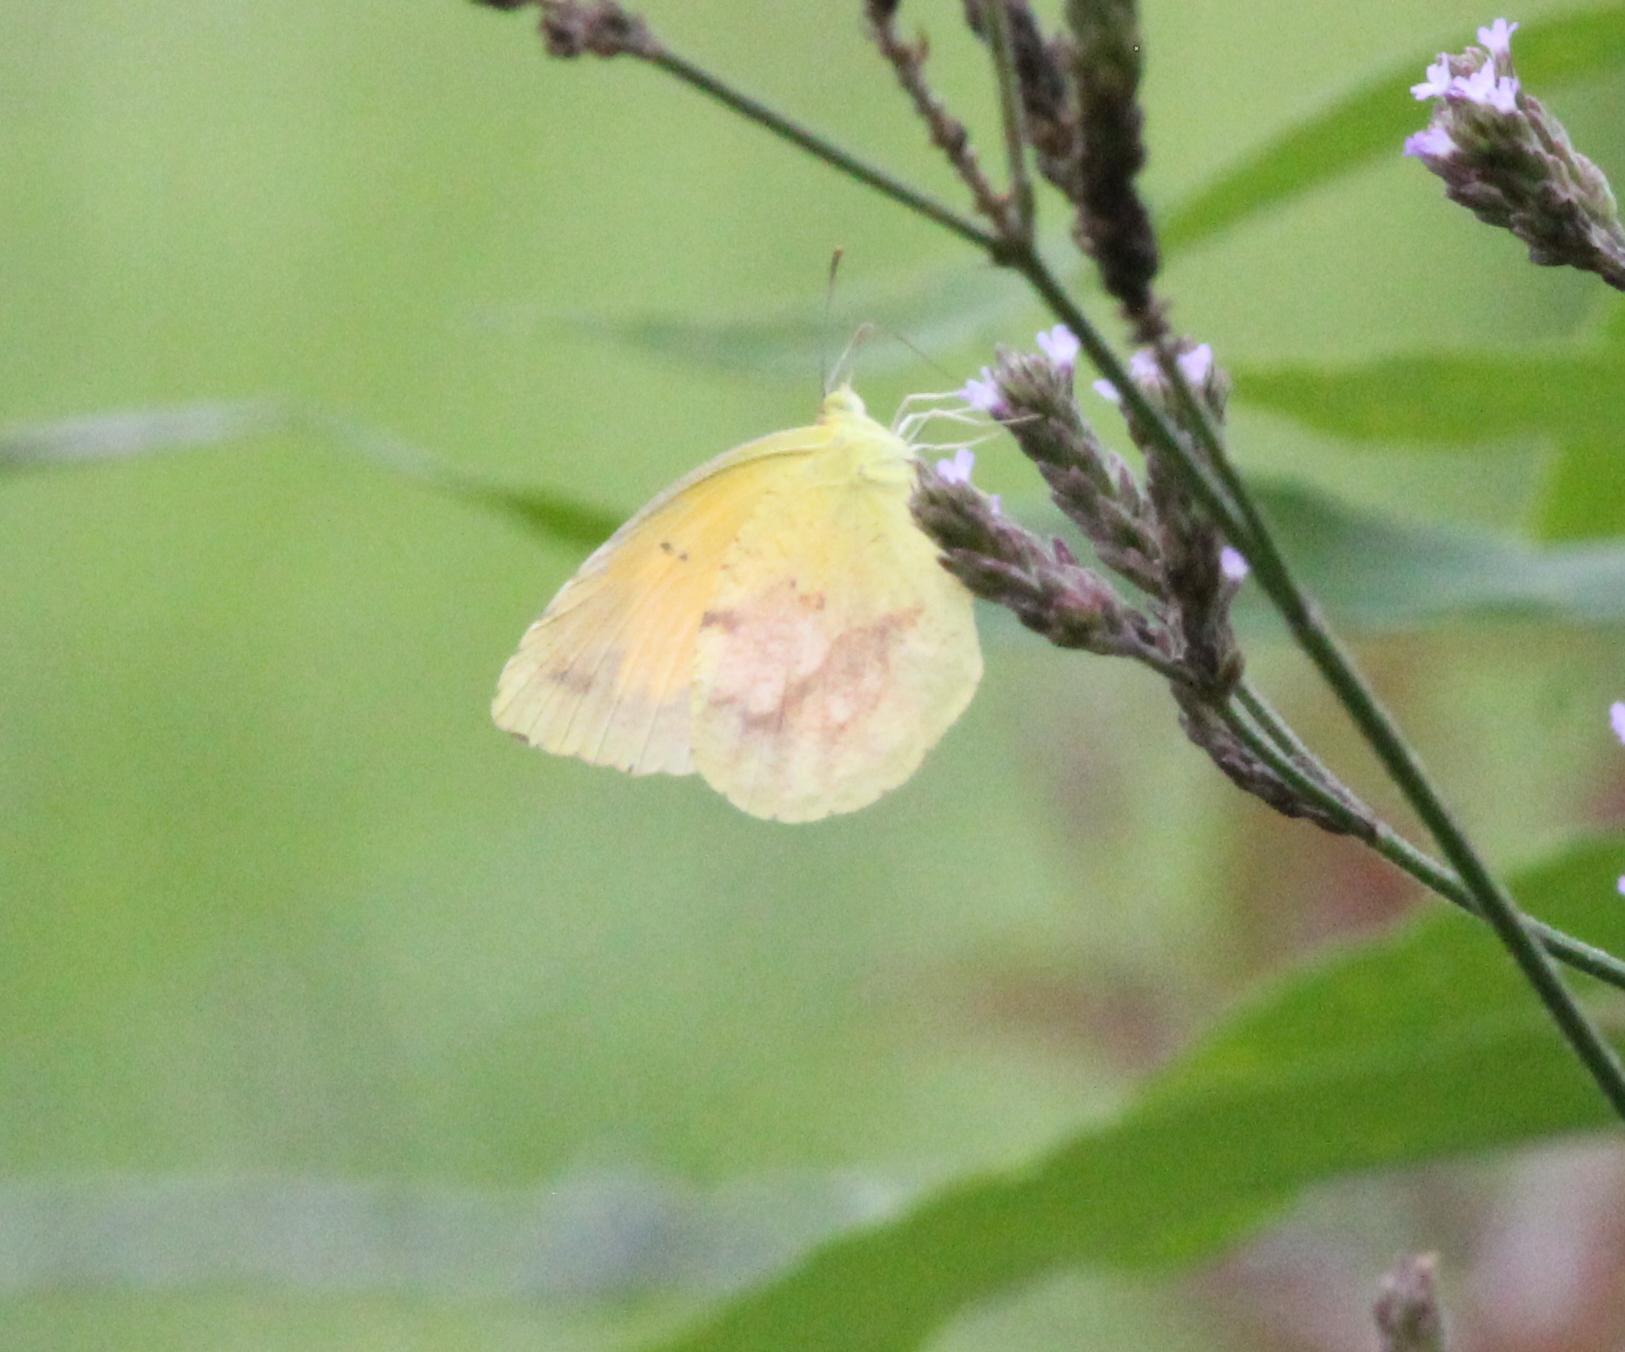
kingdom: Animalia
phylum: Arthropoda
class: Insecta
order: Lepidoptera
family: Pieridae
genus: Abaeis
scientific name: Abaeis nicippe
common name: Sleepy orange
